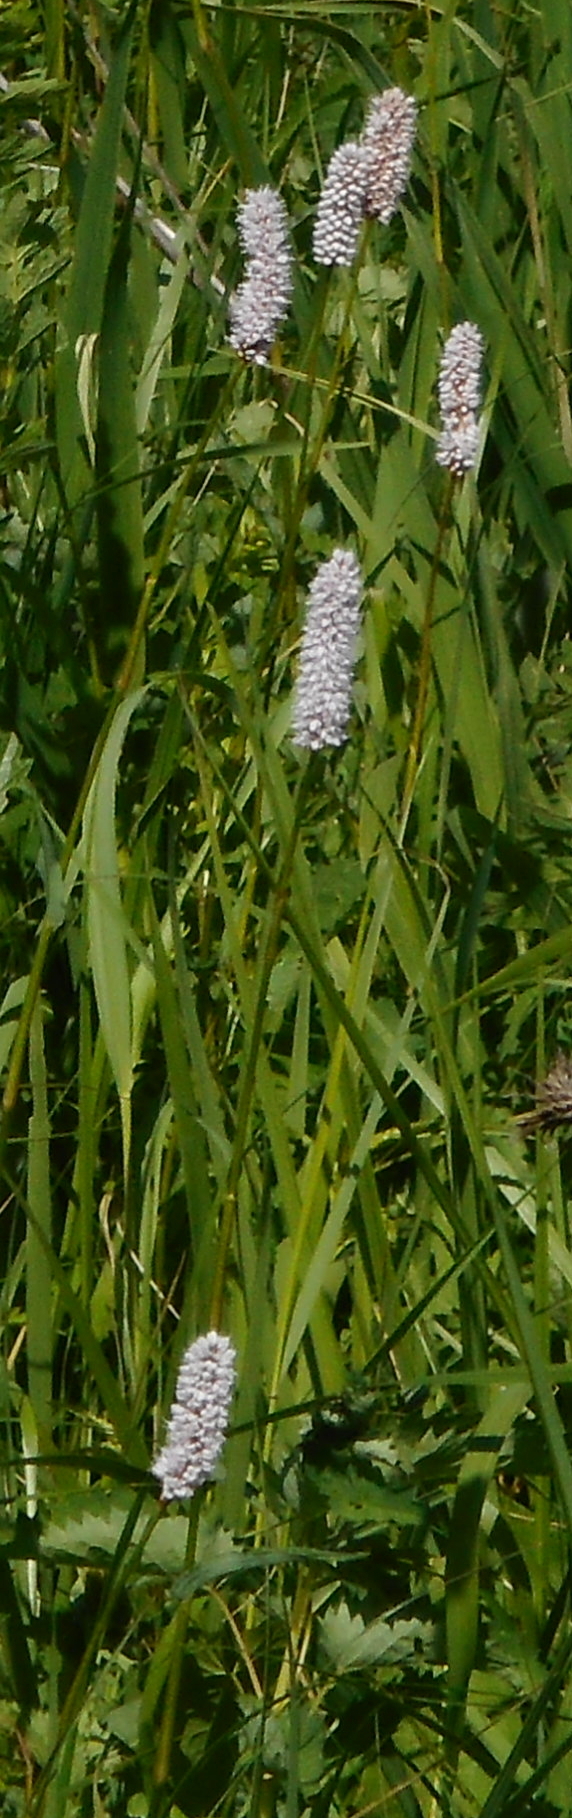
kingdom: Plantae
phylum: Tracheophyta
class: Magnoliopsida
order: Caryophyllales
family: Polygonaceae
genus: Bistorta
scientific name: Bistorta officinalis
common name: Common bistort
